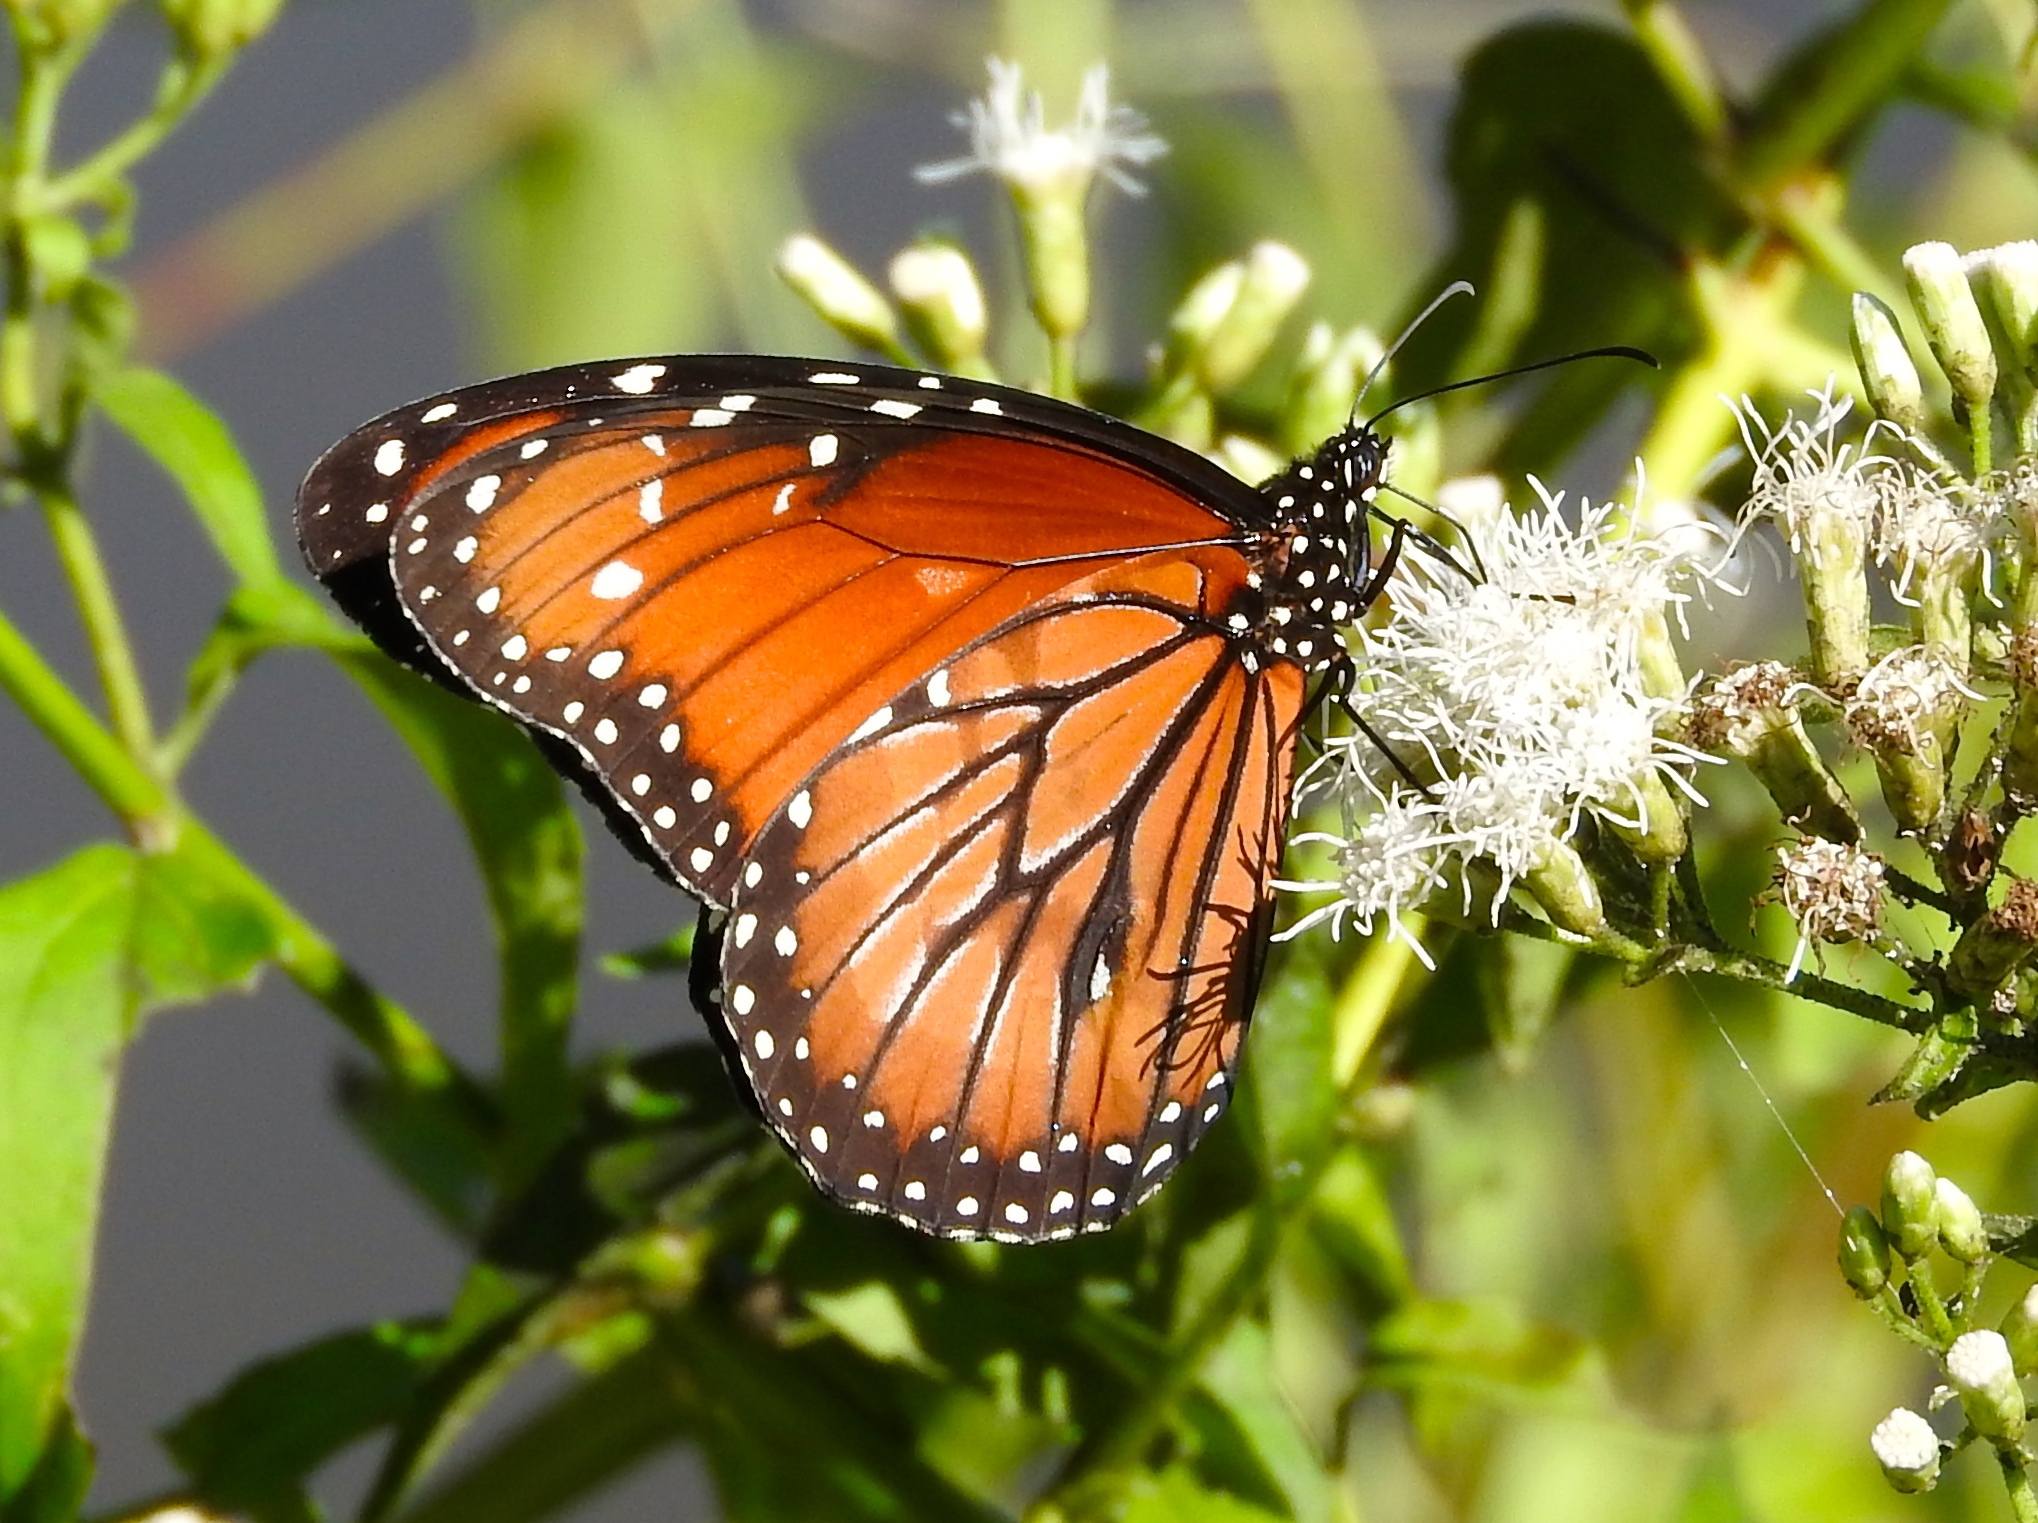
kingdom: Animalia
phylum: Arthropoda
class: Insecta
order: Lepidoptera
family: Nymphalidae
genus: Danaus
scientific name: Danaus eresimus
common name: Soldier
